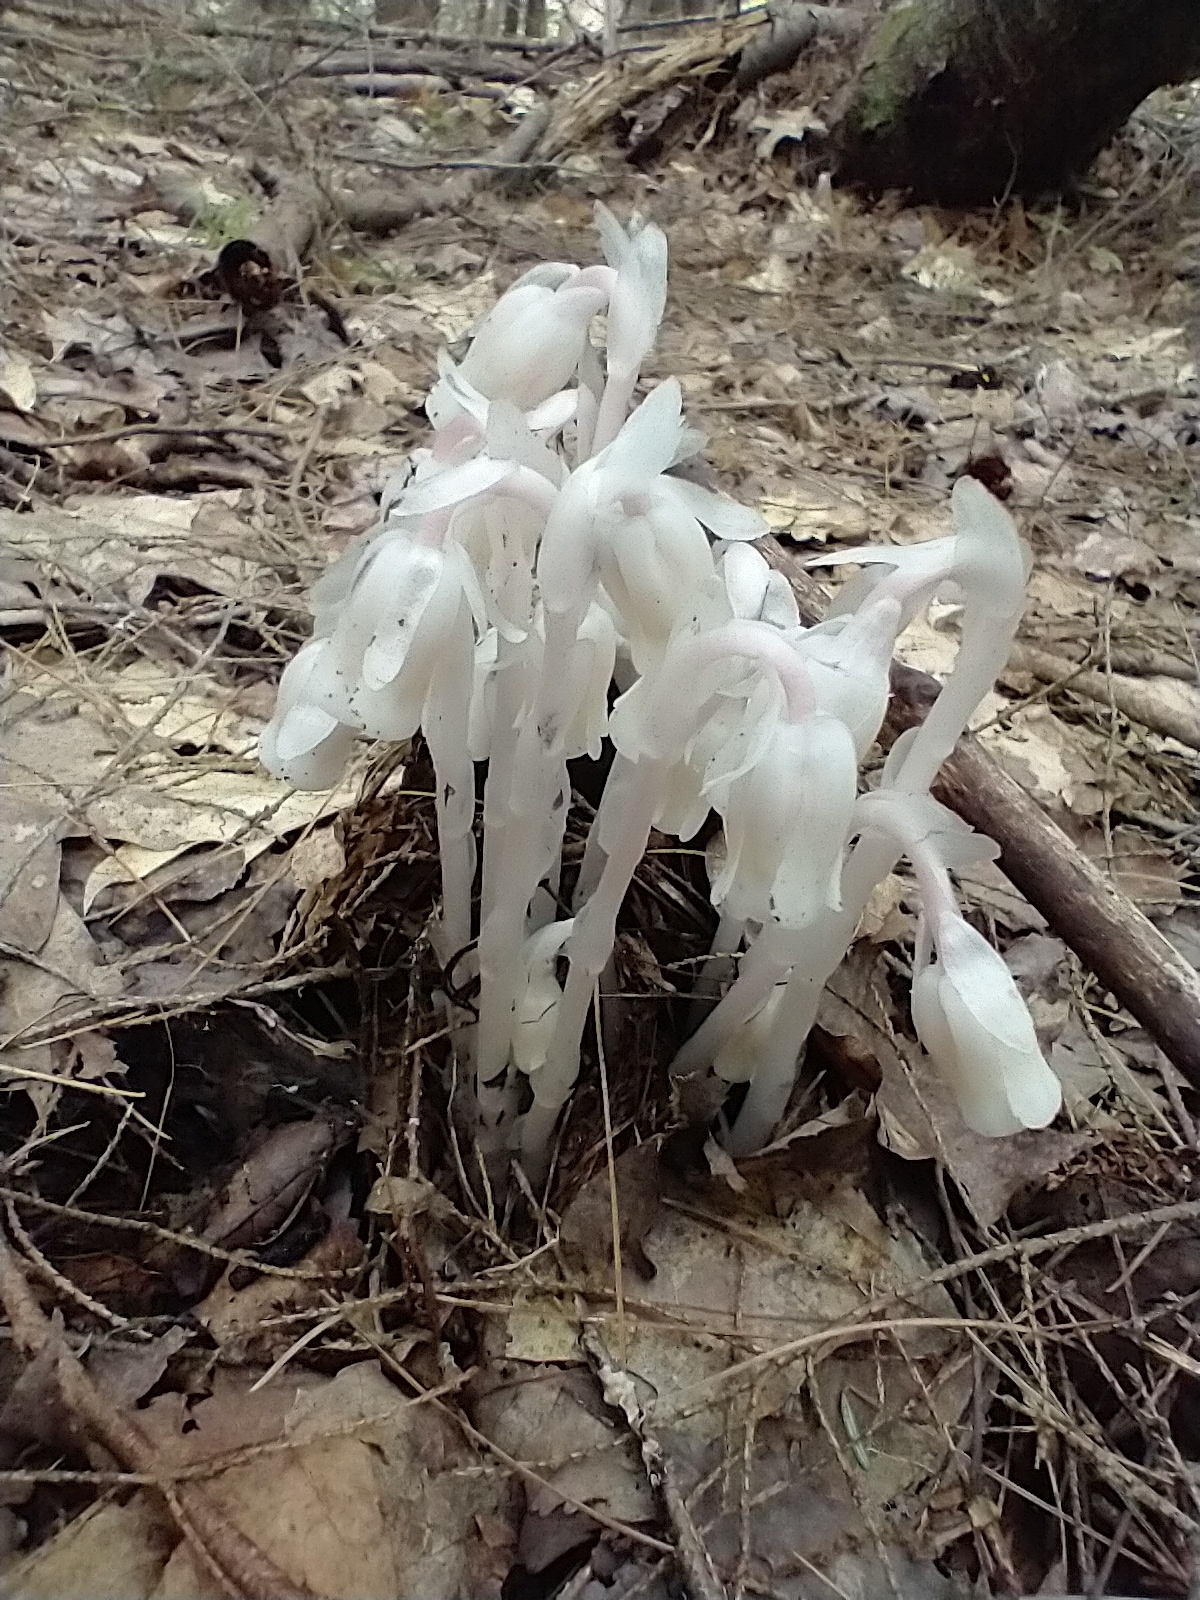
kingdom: Plantae
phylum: Tracheophyta
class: Magnoliopsida
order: Ericales
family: Ericaceae
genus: Monotropa
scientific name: Monotropa uniflora
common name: Convulsion root
